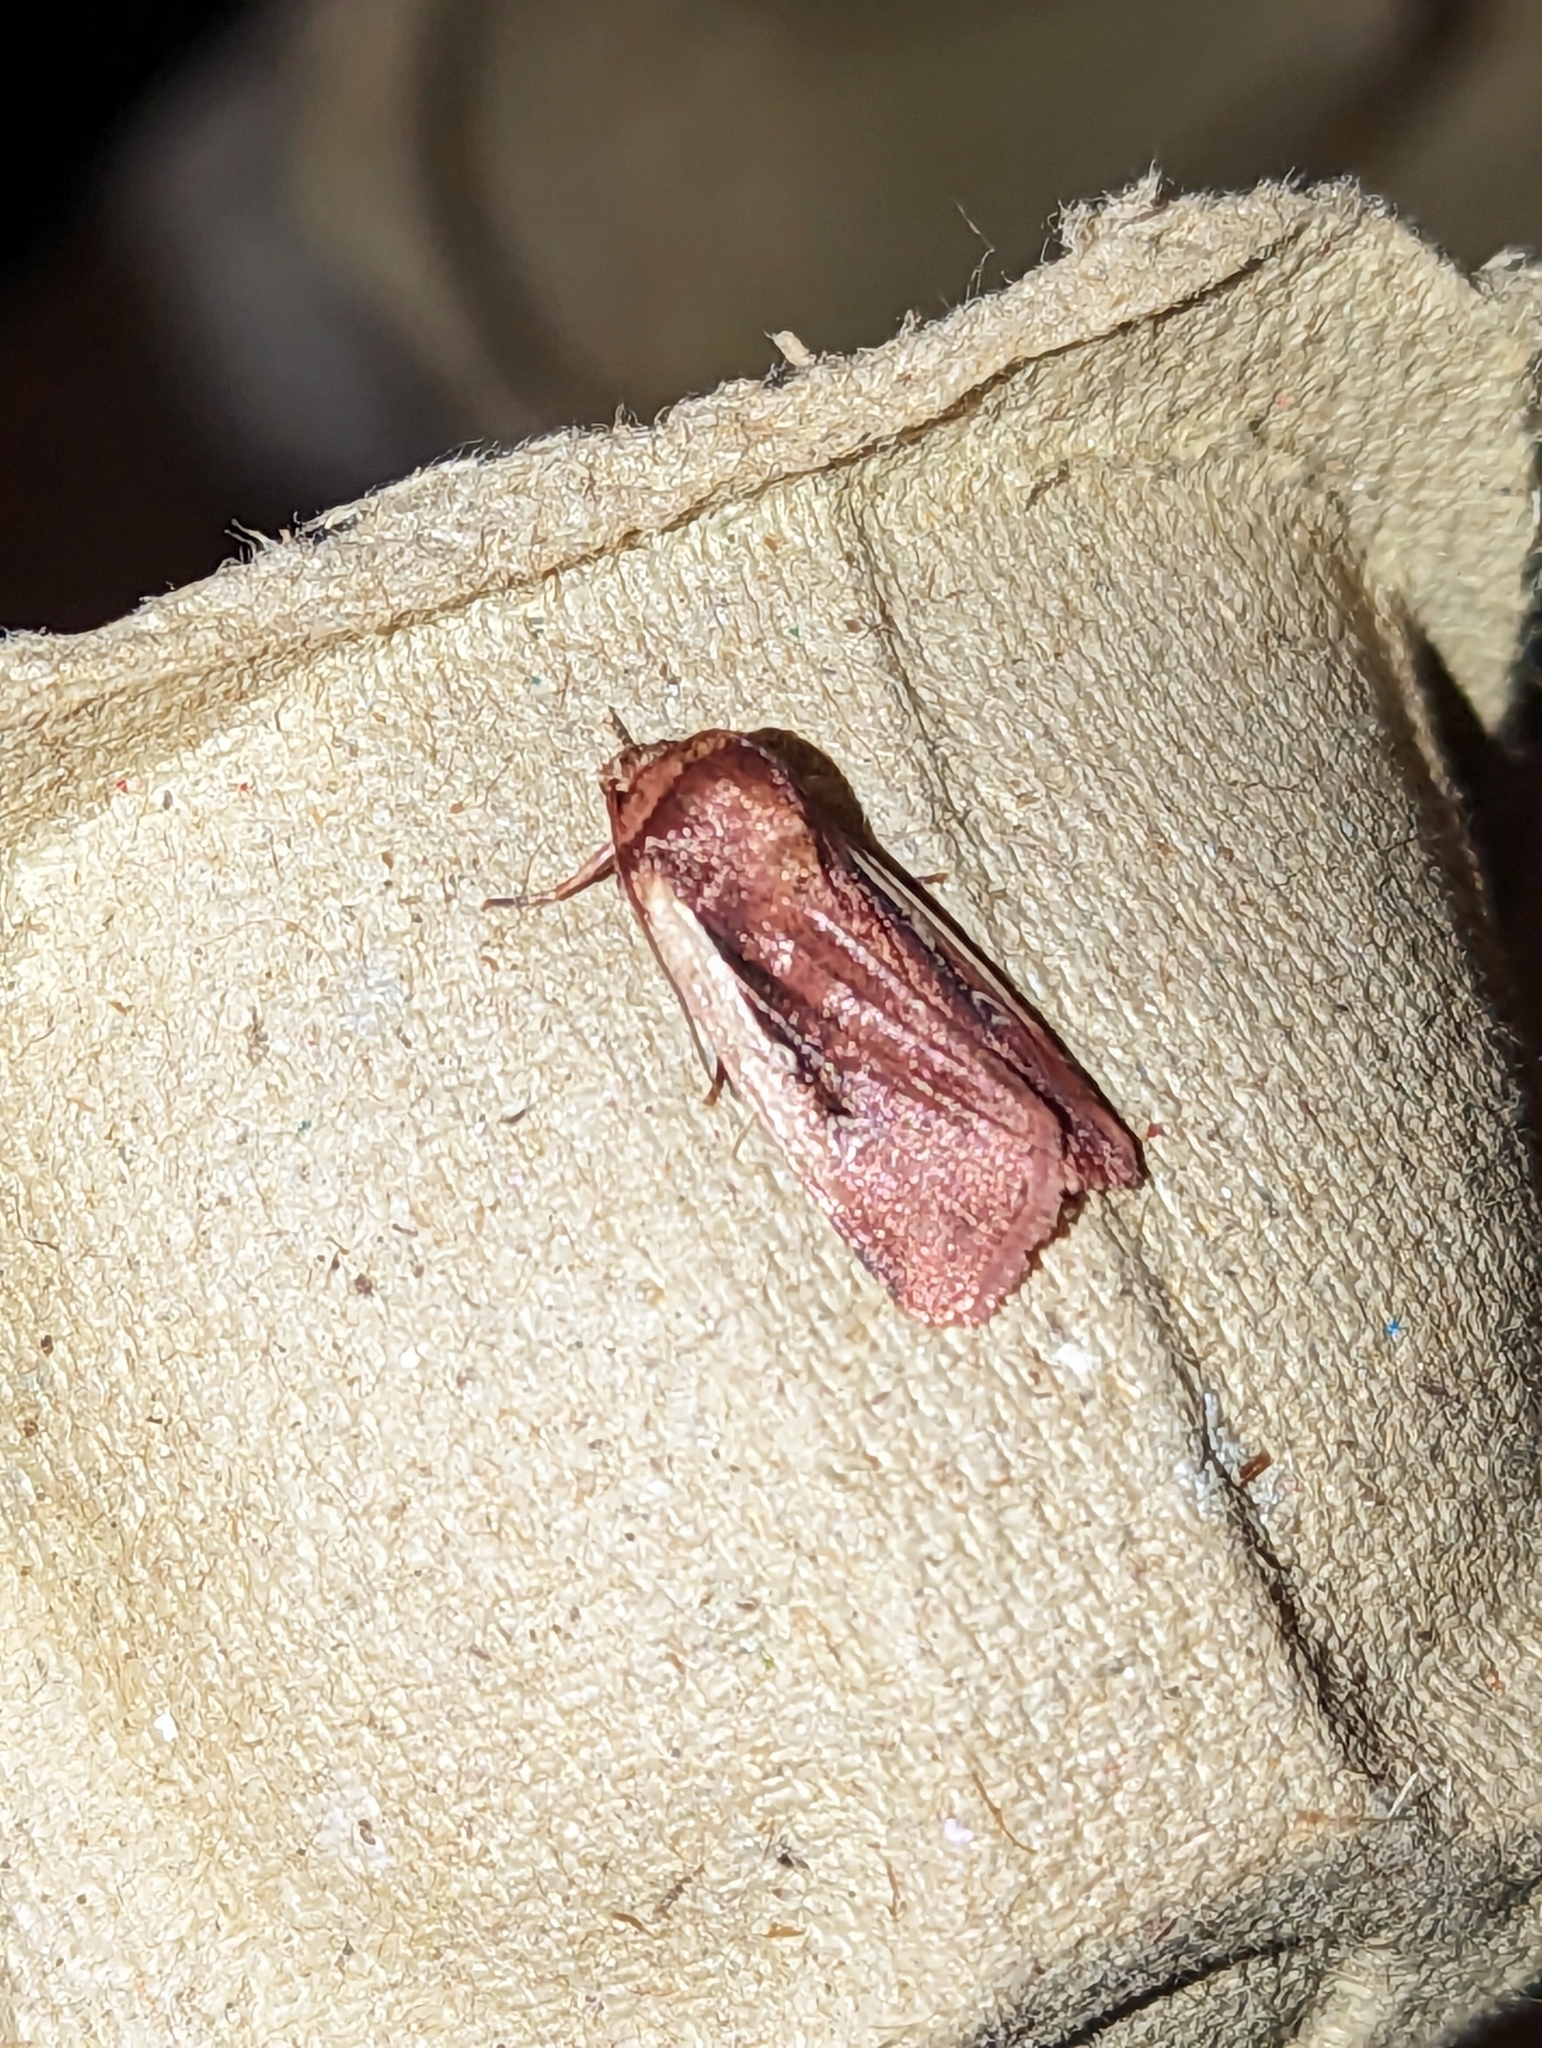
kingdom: Animalia
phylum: Arthropoda
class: Insecta
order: Lepidoptera
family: Noctuidae
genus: Ochropleura
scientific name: Ochropleura plecta
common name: Flame shoulder
